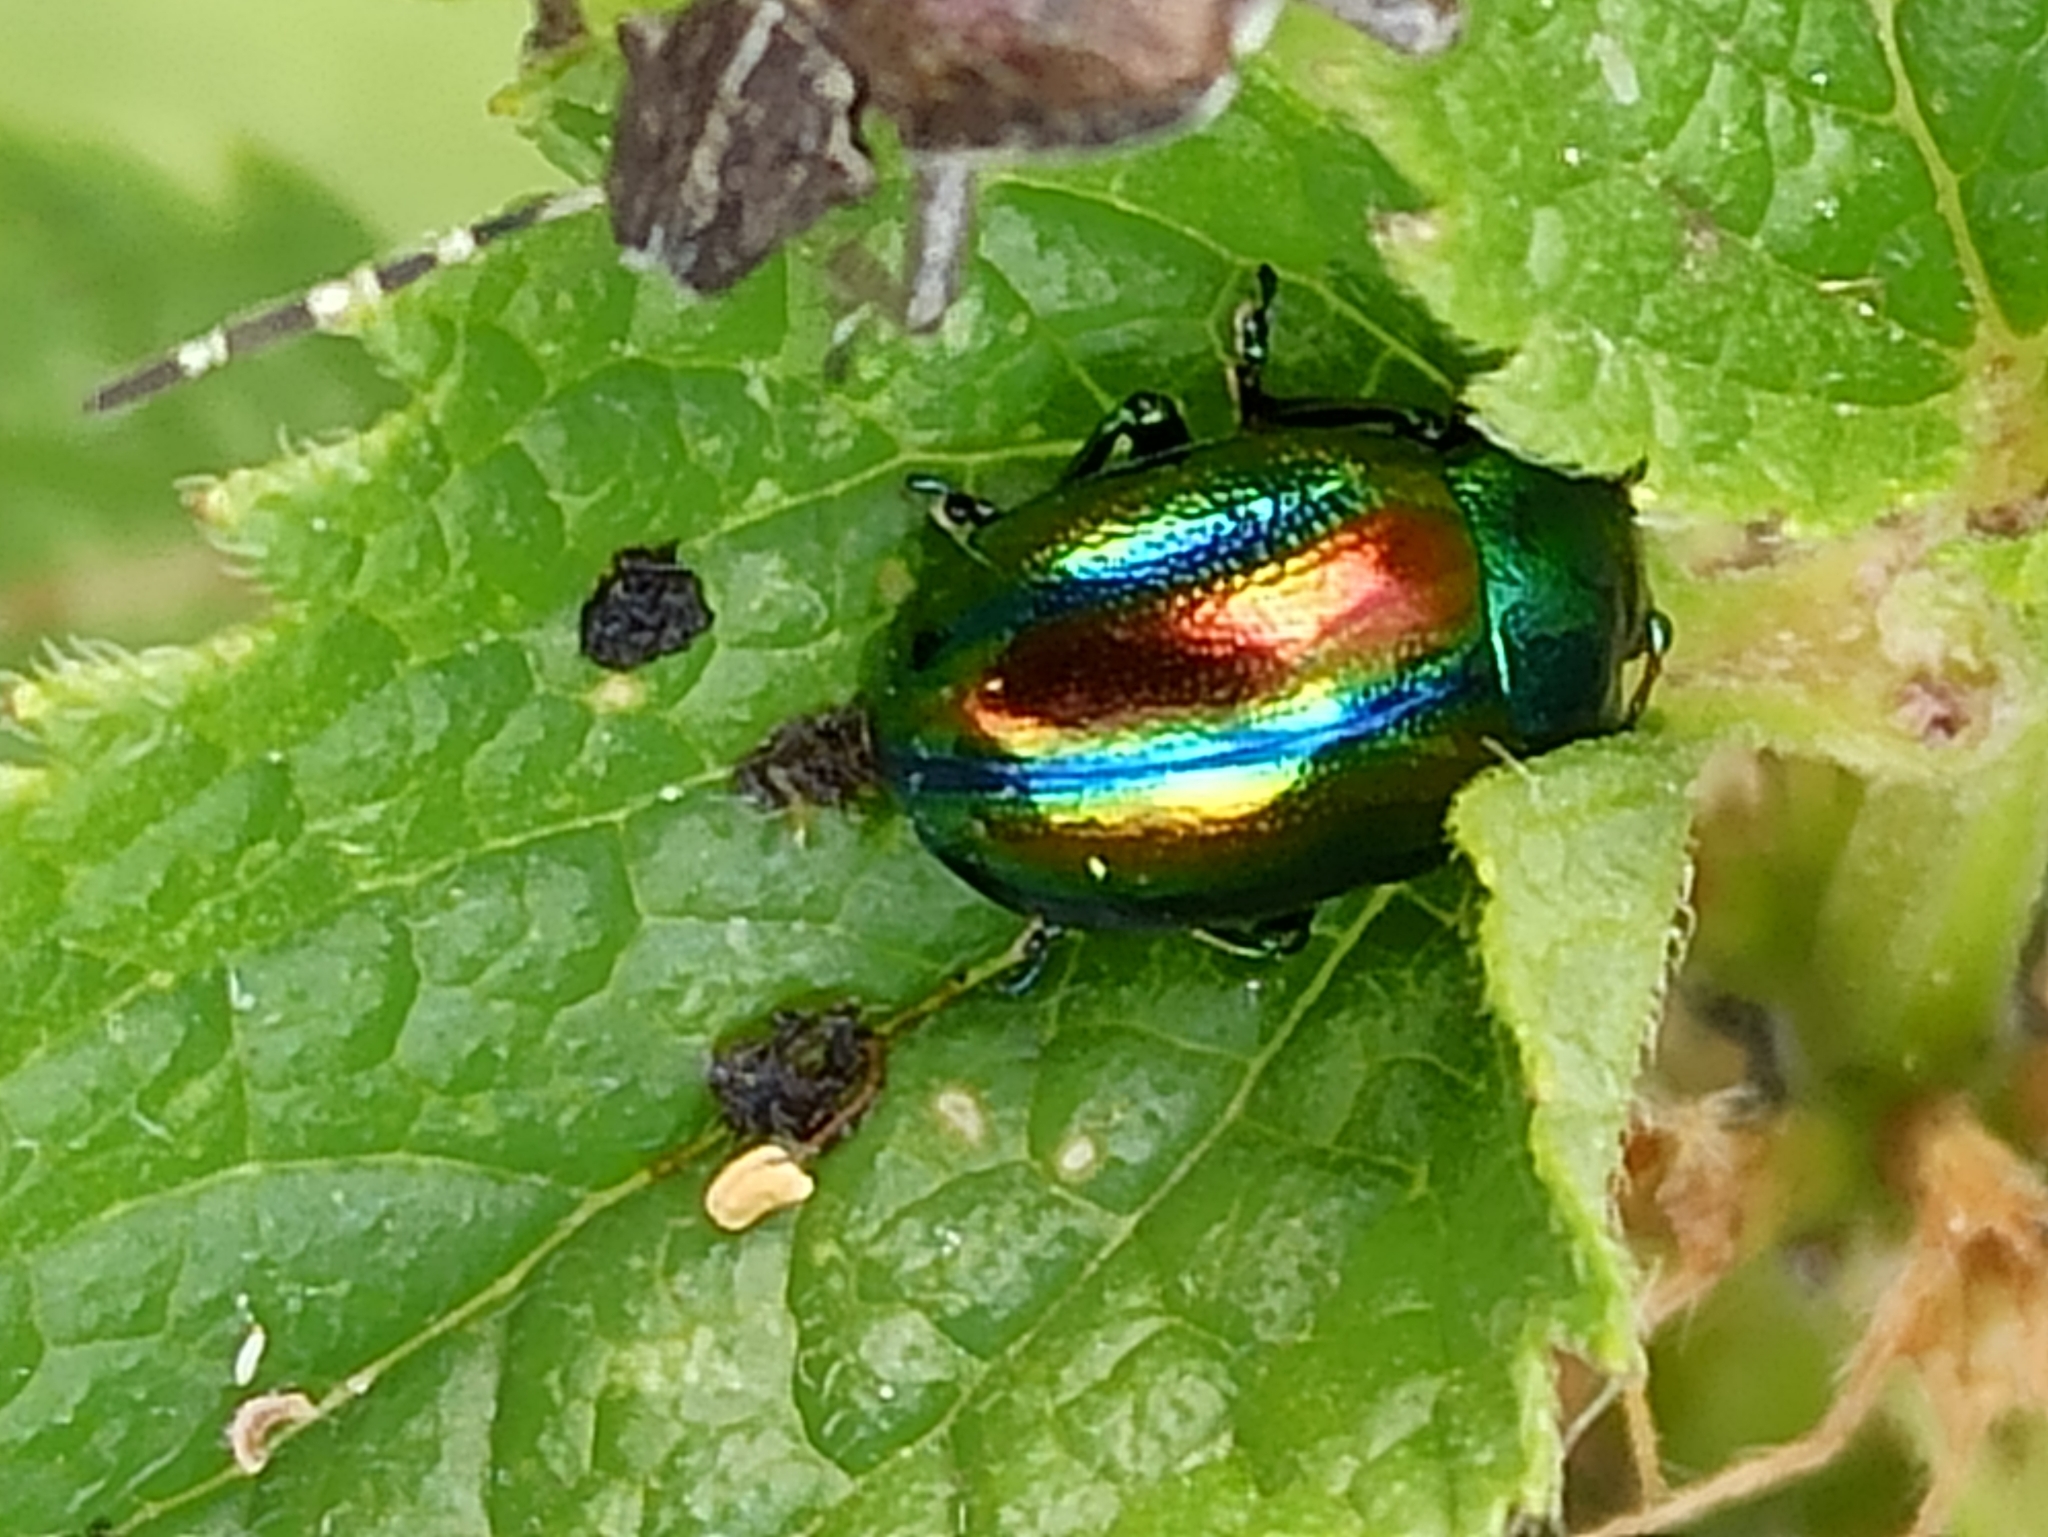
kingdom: Animalia
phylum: Arthropoda
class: Insecta
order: Coleoptera
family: Chrysomelidae
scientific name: Chrysomelidae
